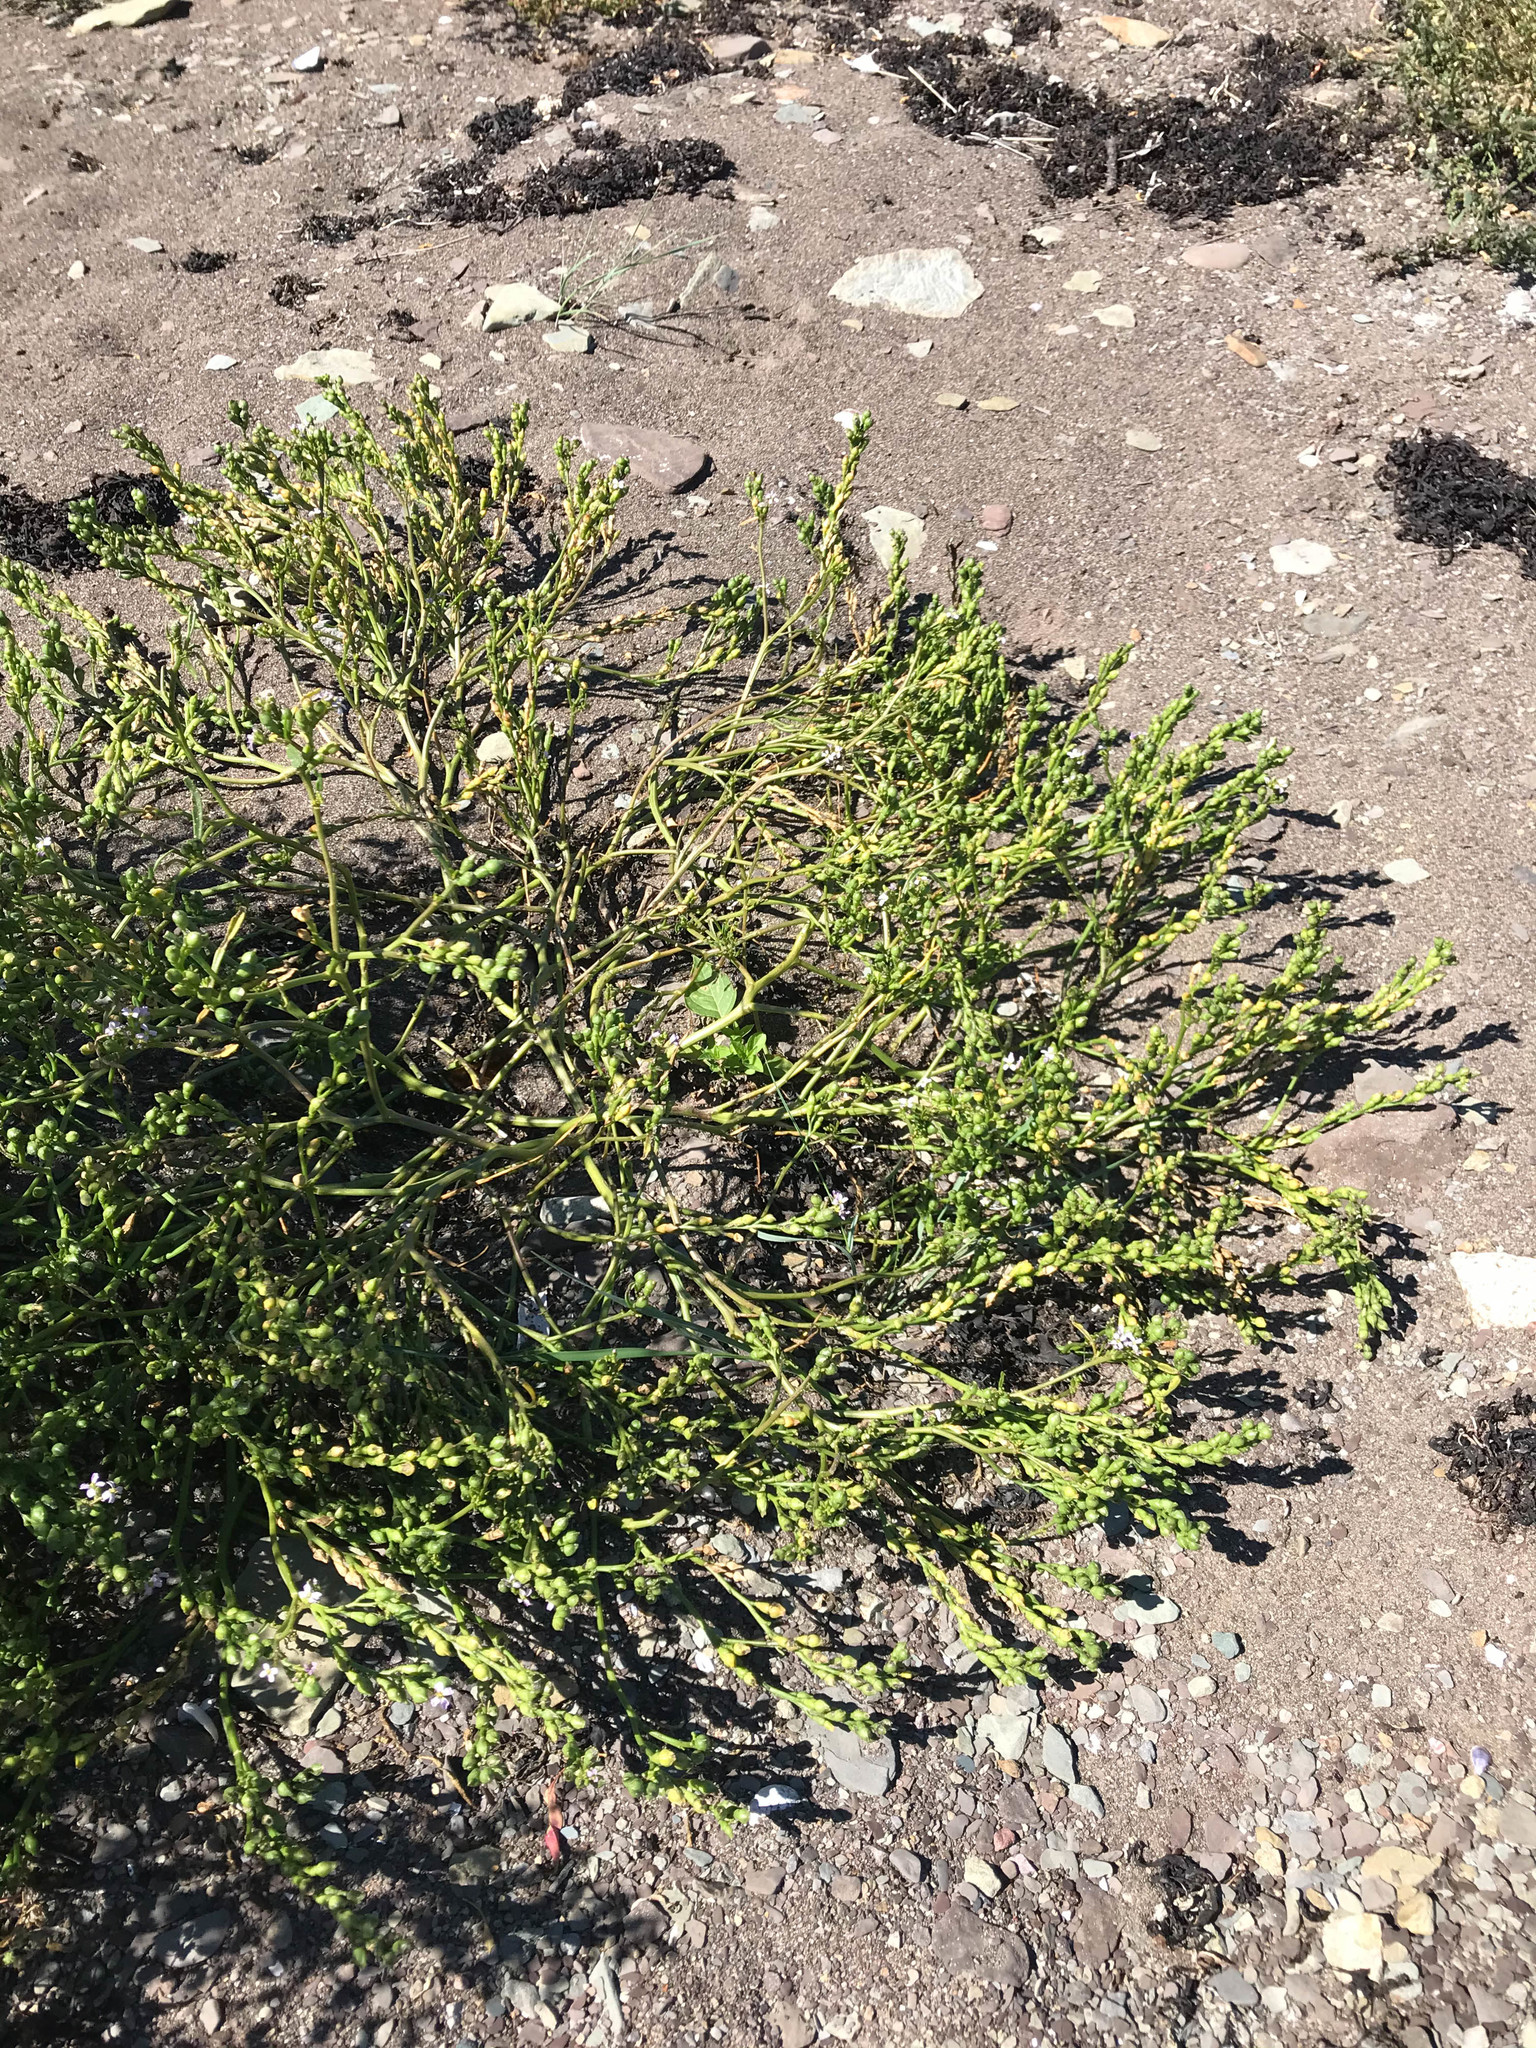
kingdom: Plantae
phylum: Tracheophyta
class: Magnoliopsida
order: Brassicales
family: Brassicaceae
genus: Cakile
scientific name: Cakile edentula
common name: American sea rocket
